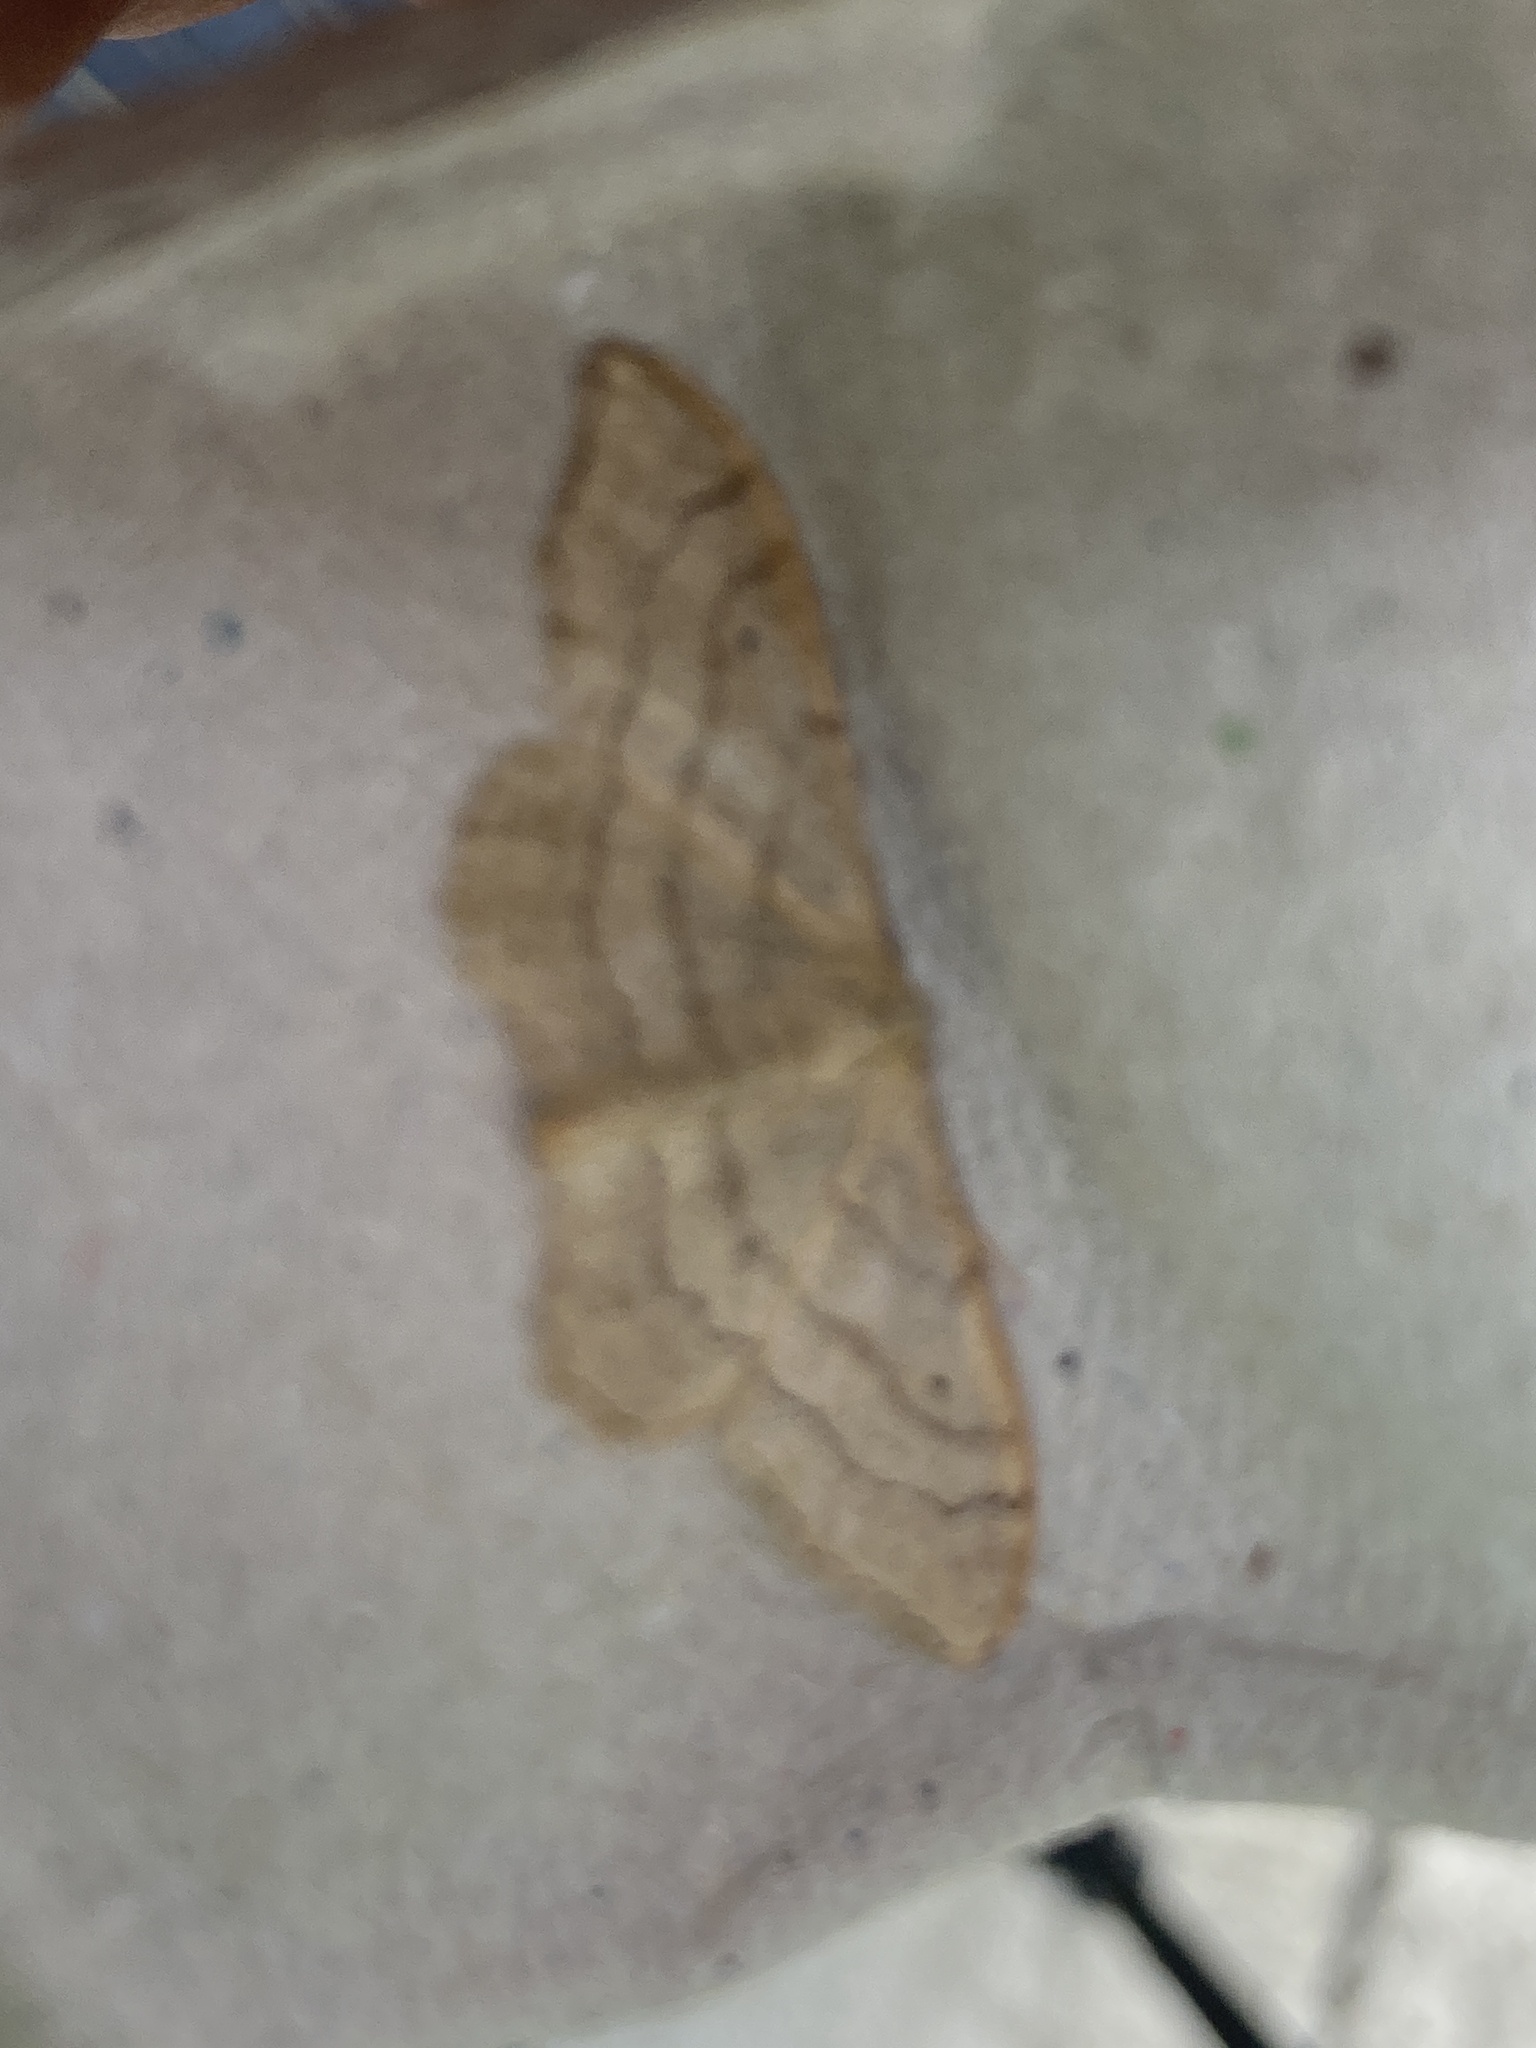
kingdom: Animalia
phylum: Arthropoda
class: Insecta
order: Lepidoptera
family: Geometridae
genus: Idaea
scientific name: Idaea aversata
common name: Riband wave
